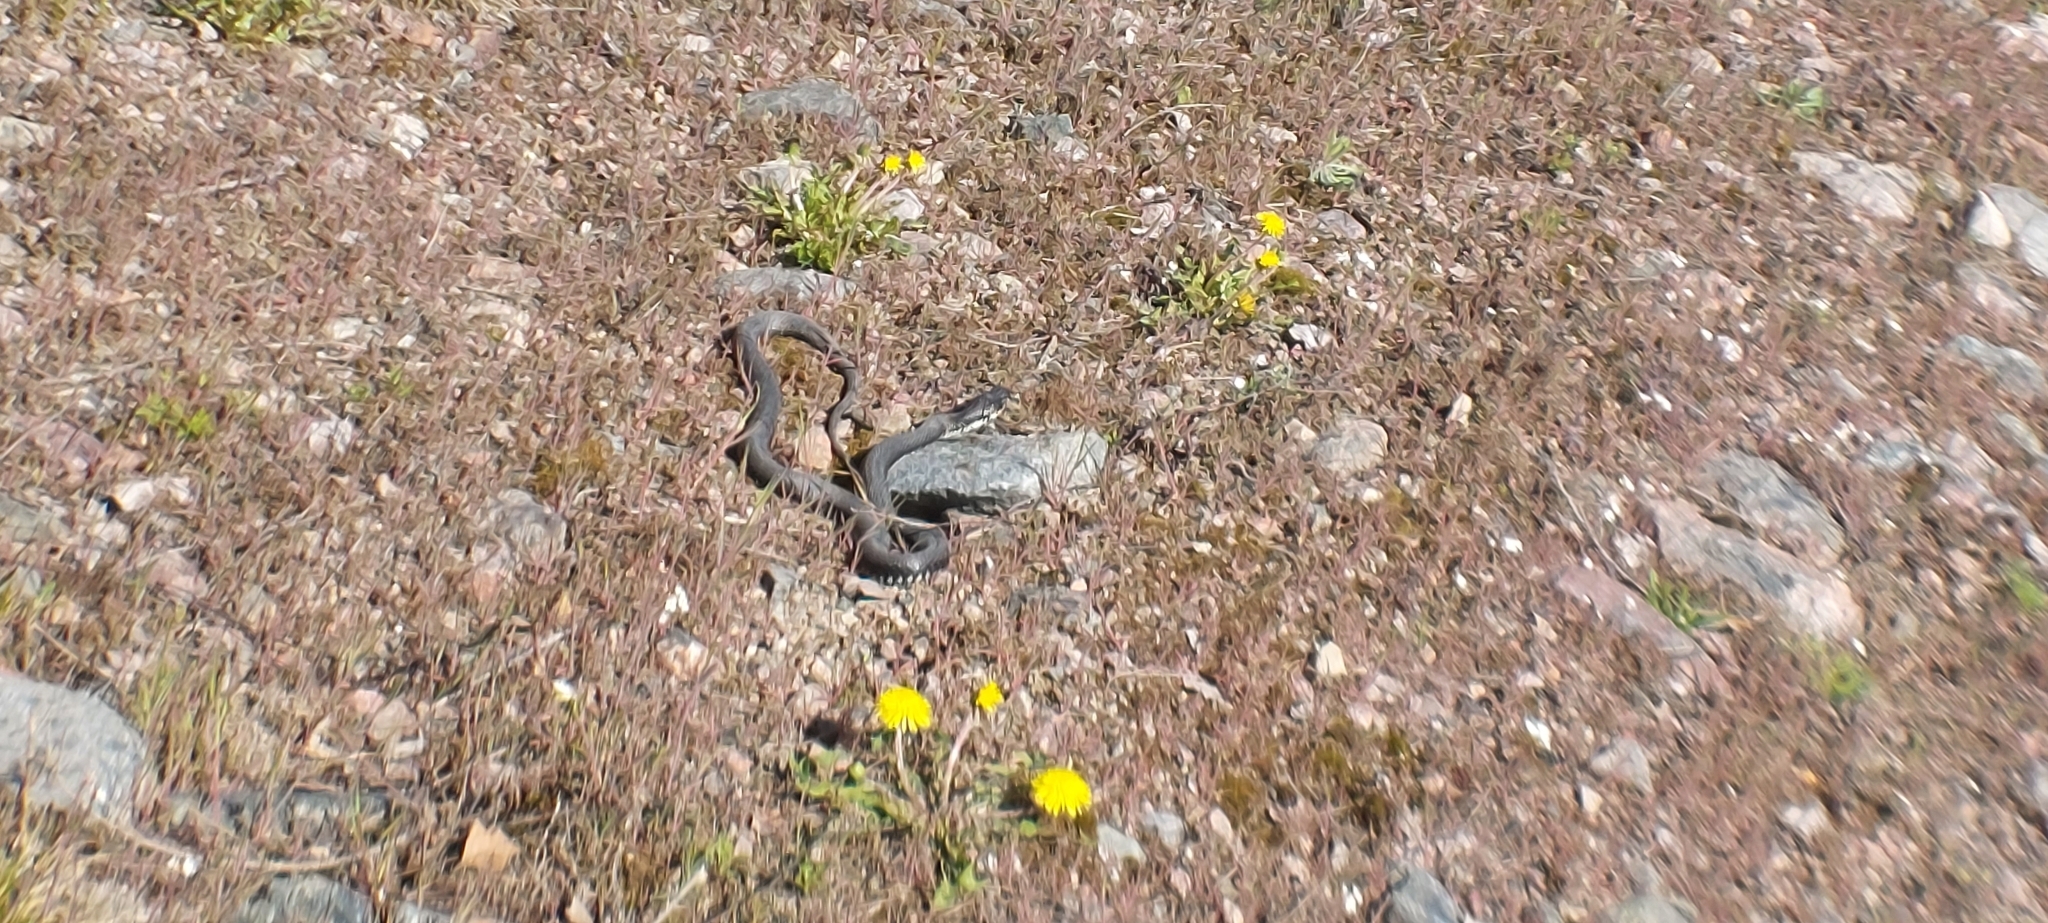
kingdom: Animalia
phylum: Chordata
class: Squamata
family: Colubridae
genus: Natrix
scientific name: Natrix natrix
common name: Grass snake
